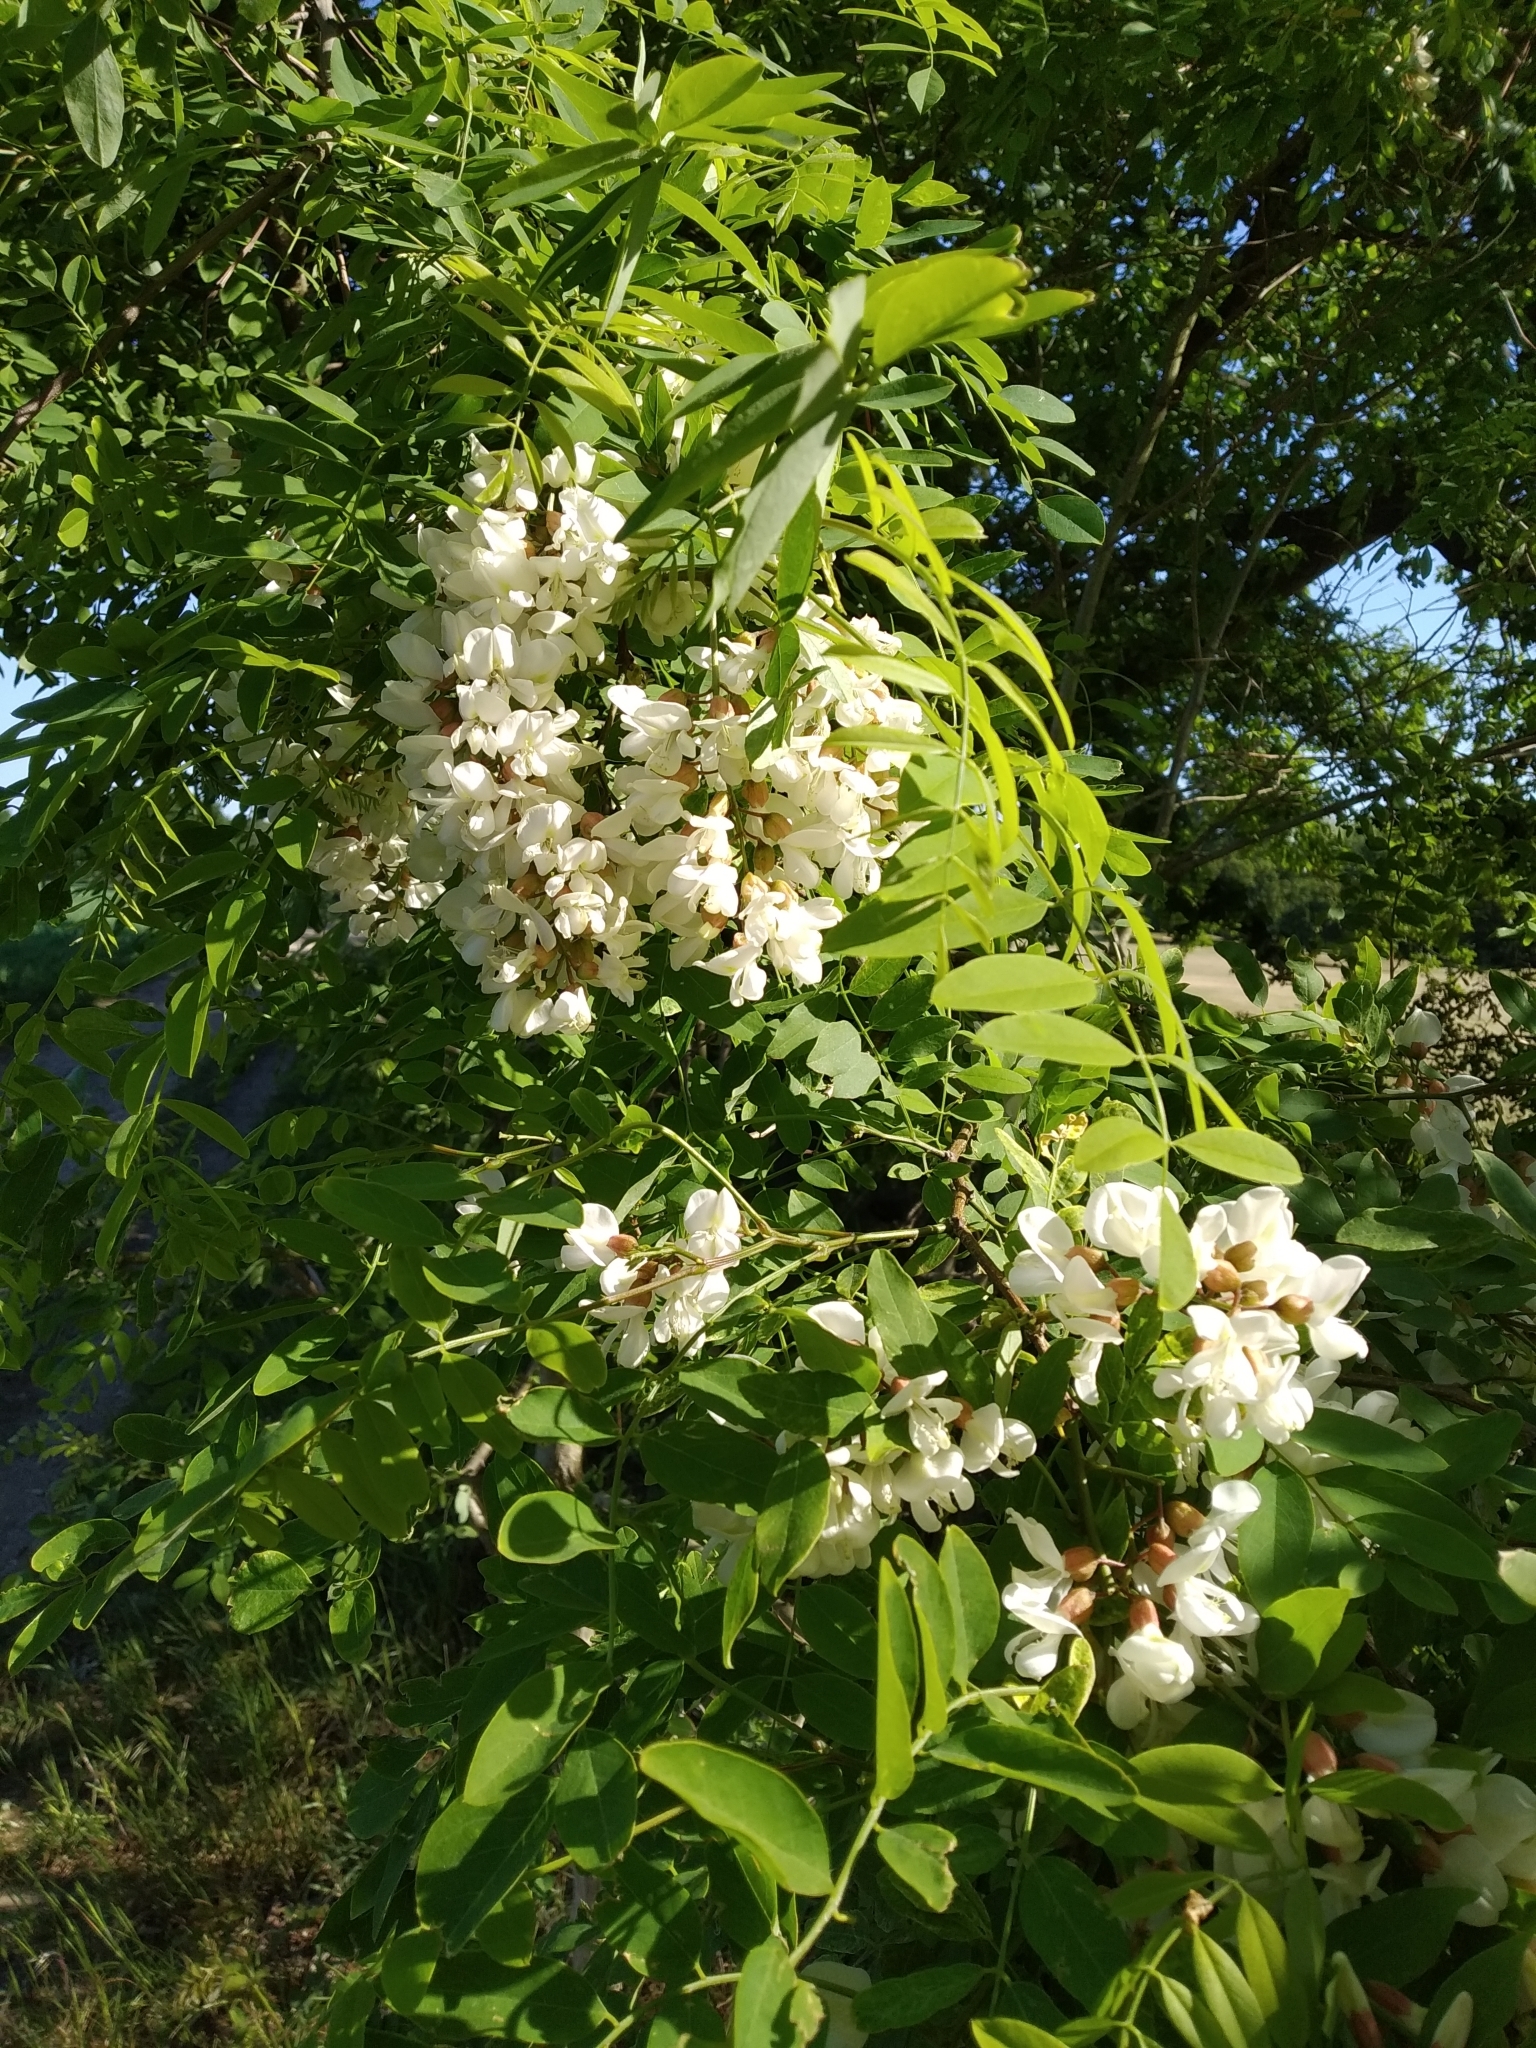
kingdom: Plantae
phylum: Tracheophyta
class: Magnoliopsida
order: Fabales
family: Fabaceae
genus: Robinia
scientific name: Robinia pseudoacacia
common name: Black locust
